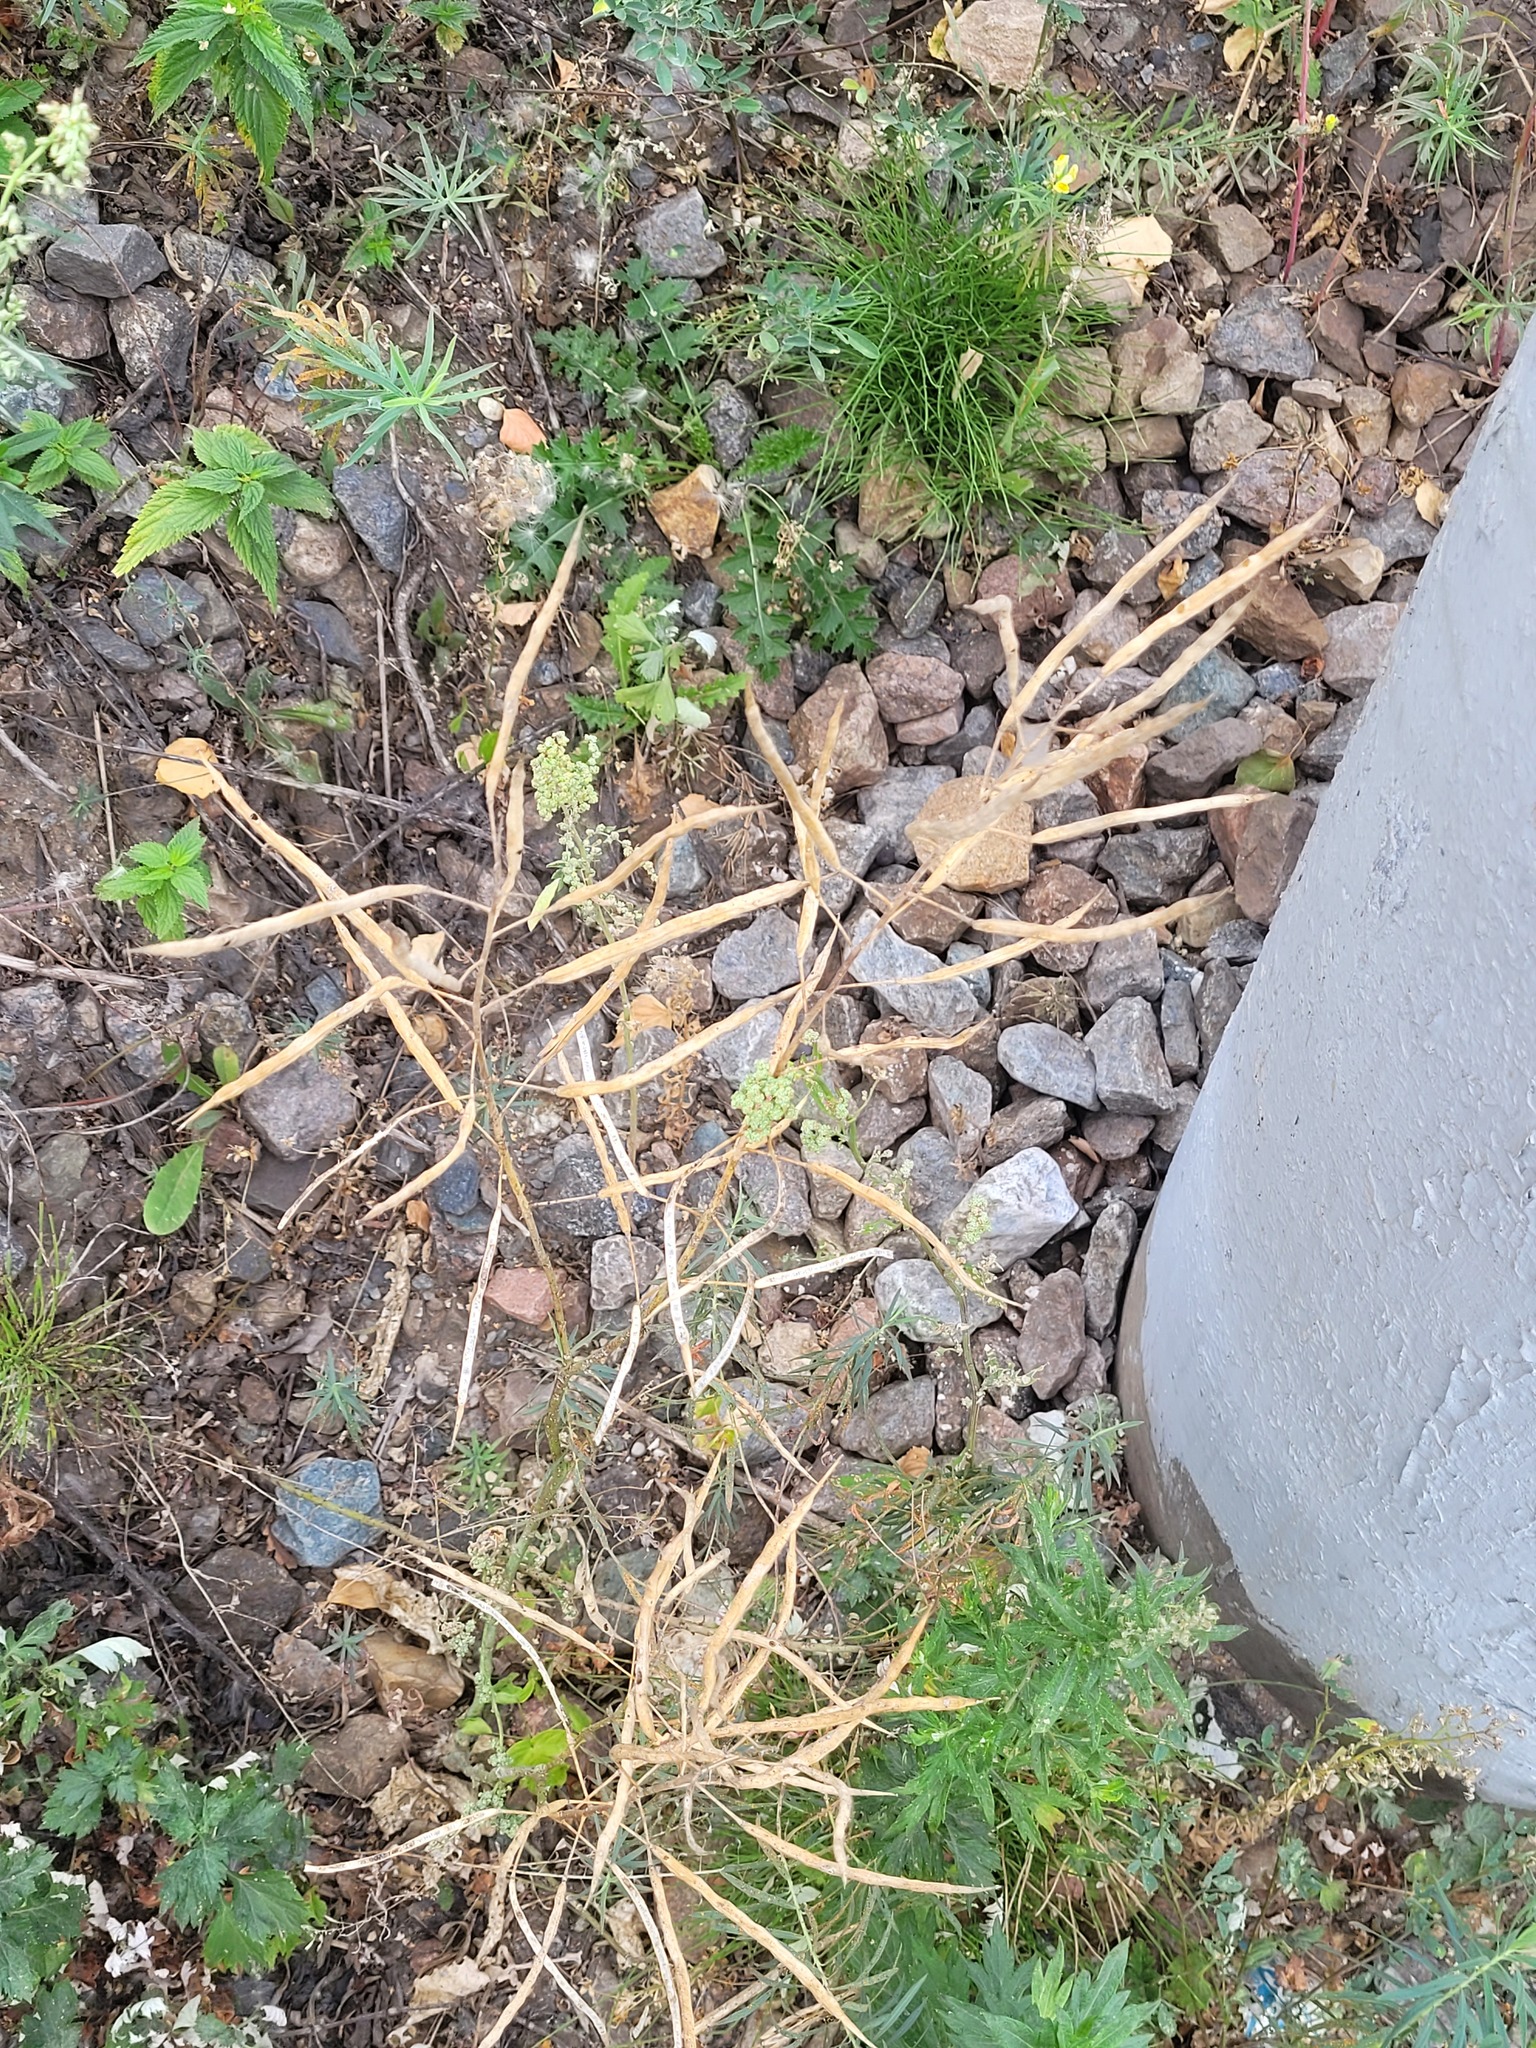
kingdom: Plantae
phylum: Tracheophyta
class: Magnoliopsida
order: Brassicales
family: Brassicaceae
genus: Brassica
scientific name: Brassica napus
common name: Rape
